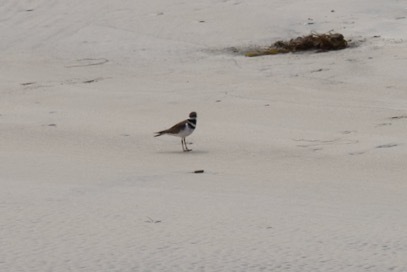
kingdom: Animalia
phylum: Chordata
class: Aves
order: Charadriiformes
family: Charadriidae
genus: Charadrius
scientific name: Charadrius vociferus
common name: Killdeer
